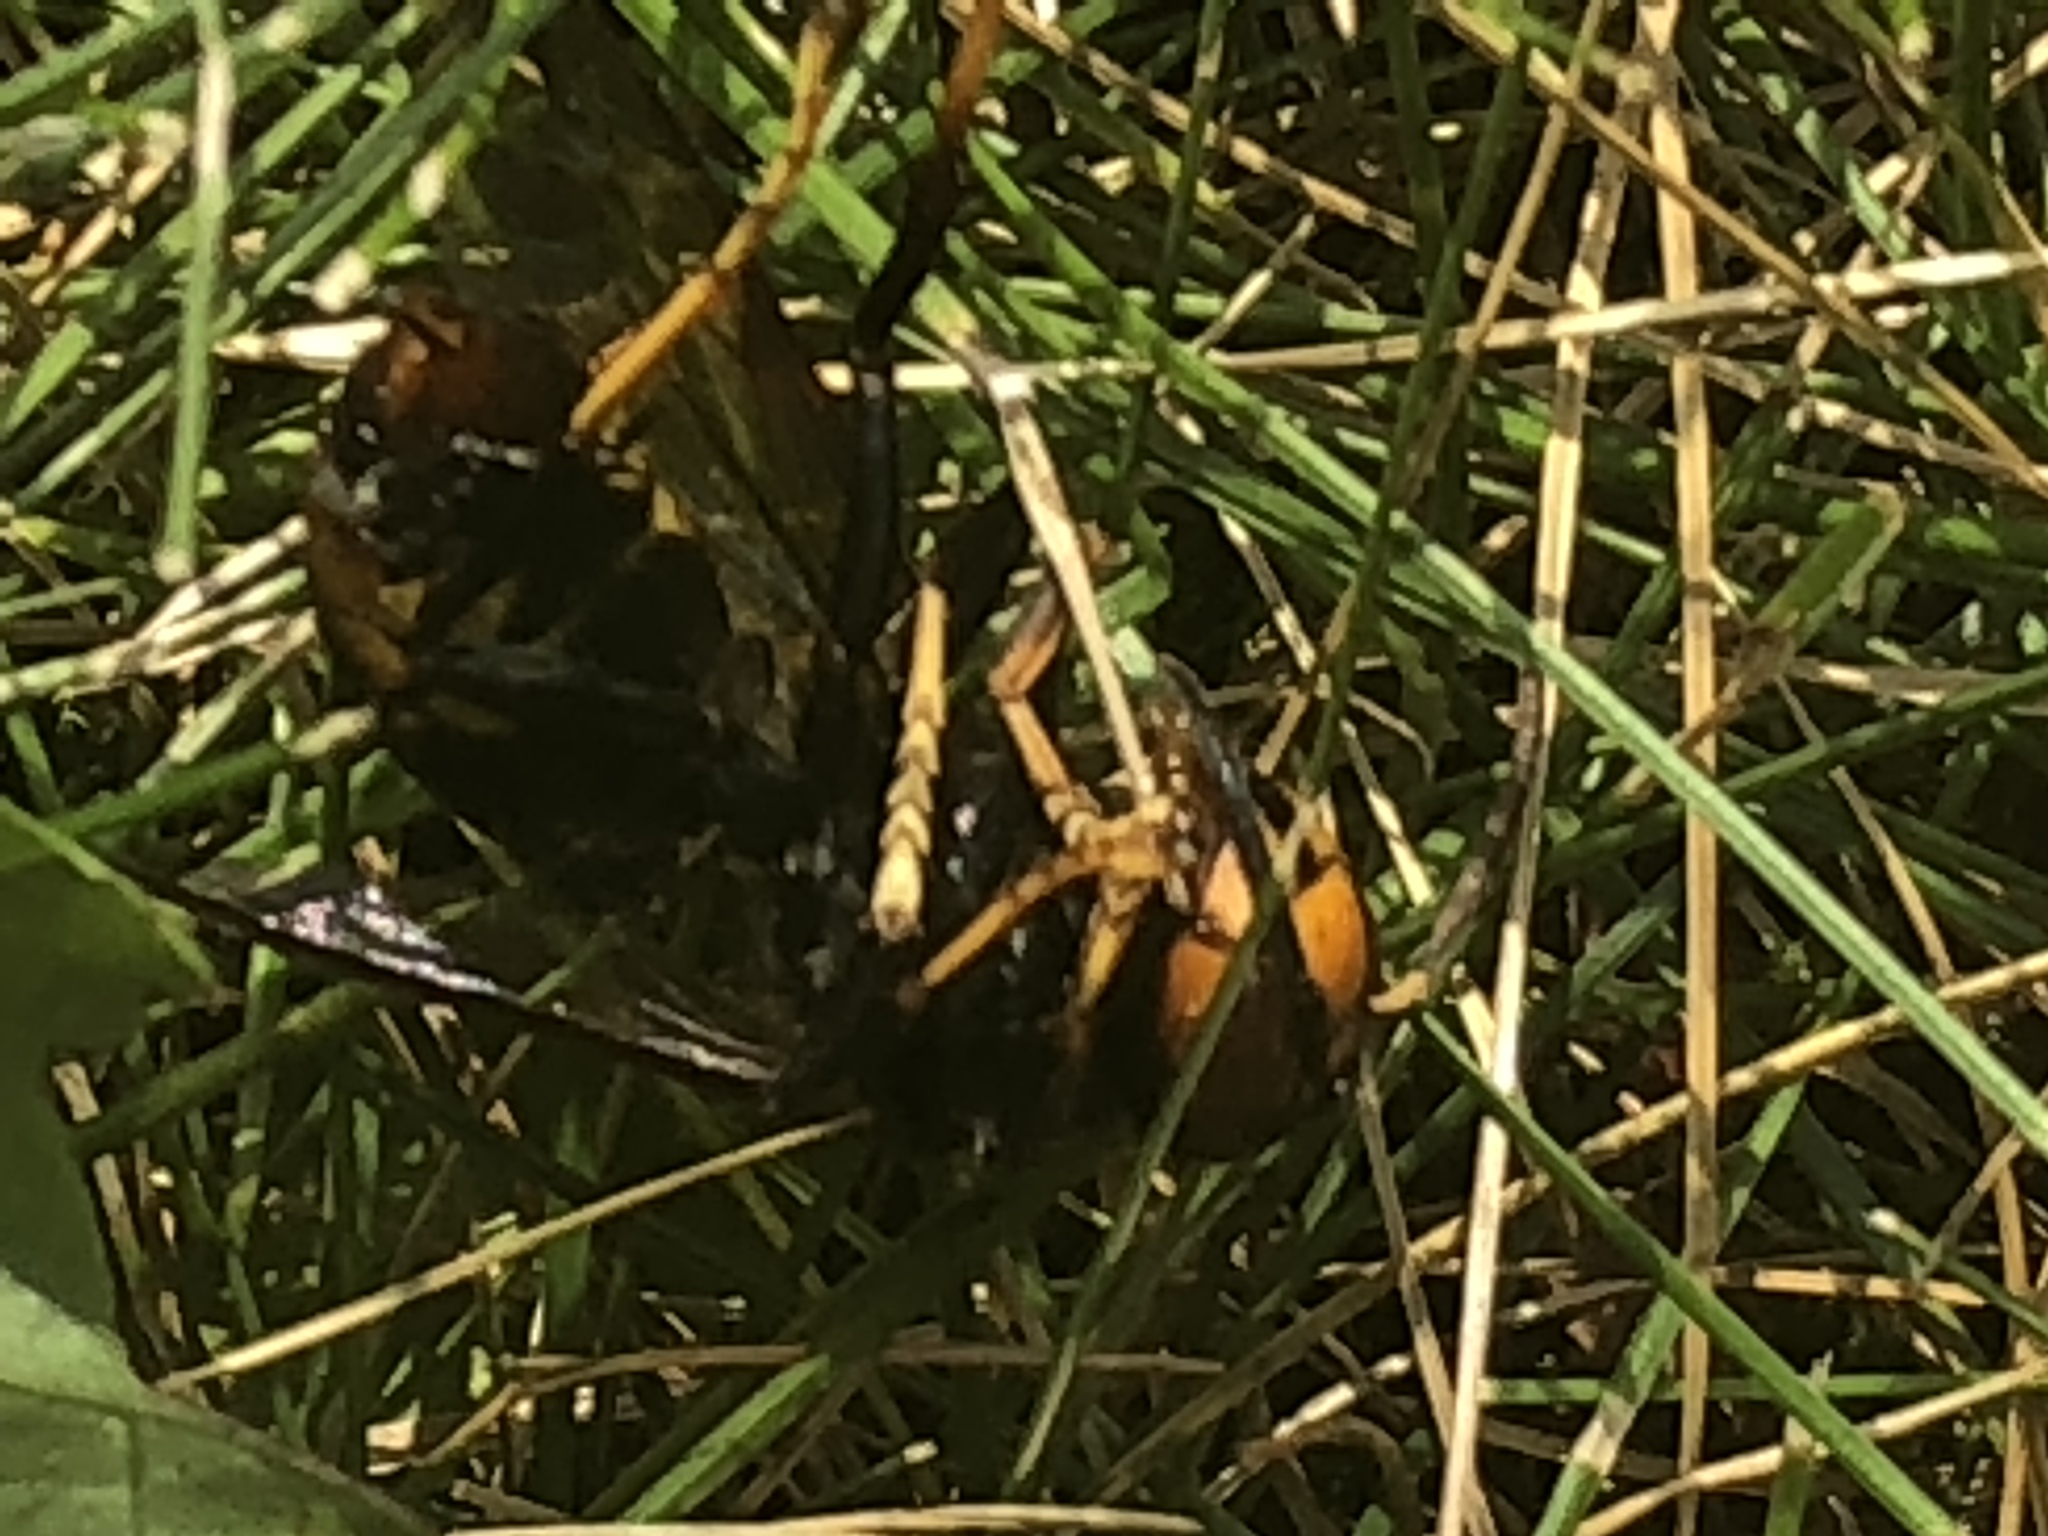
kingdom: Animalia
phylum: Arthropoda
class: Insecta
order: Hymenoptera
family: Vespidae
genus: Vespa
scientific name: Vespa velutina
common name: Asian hornet
